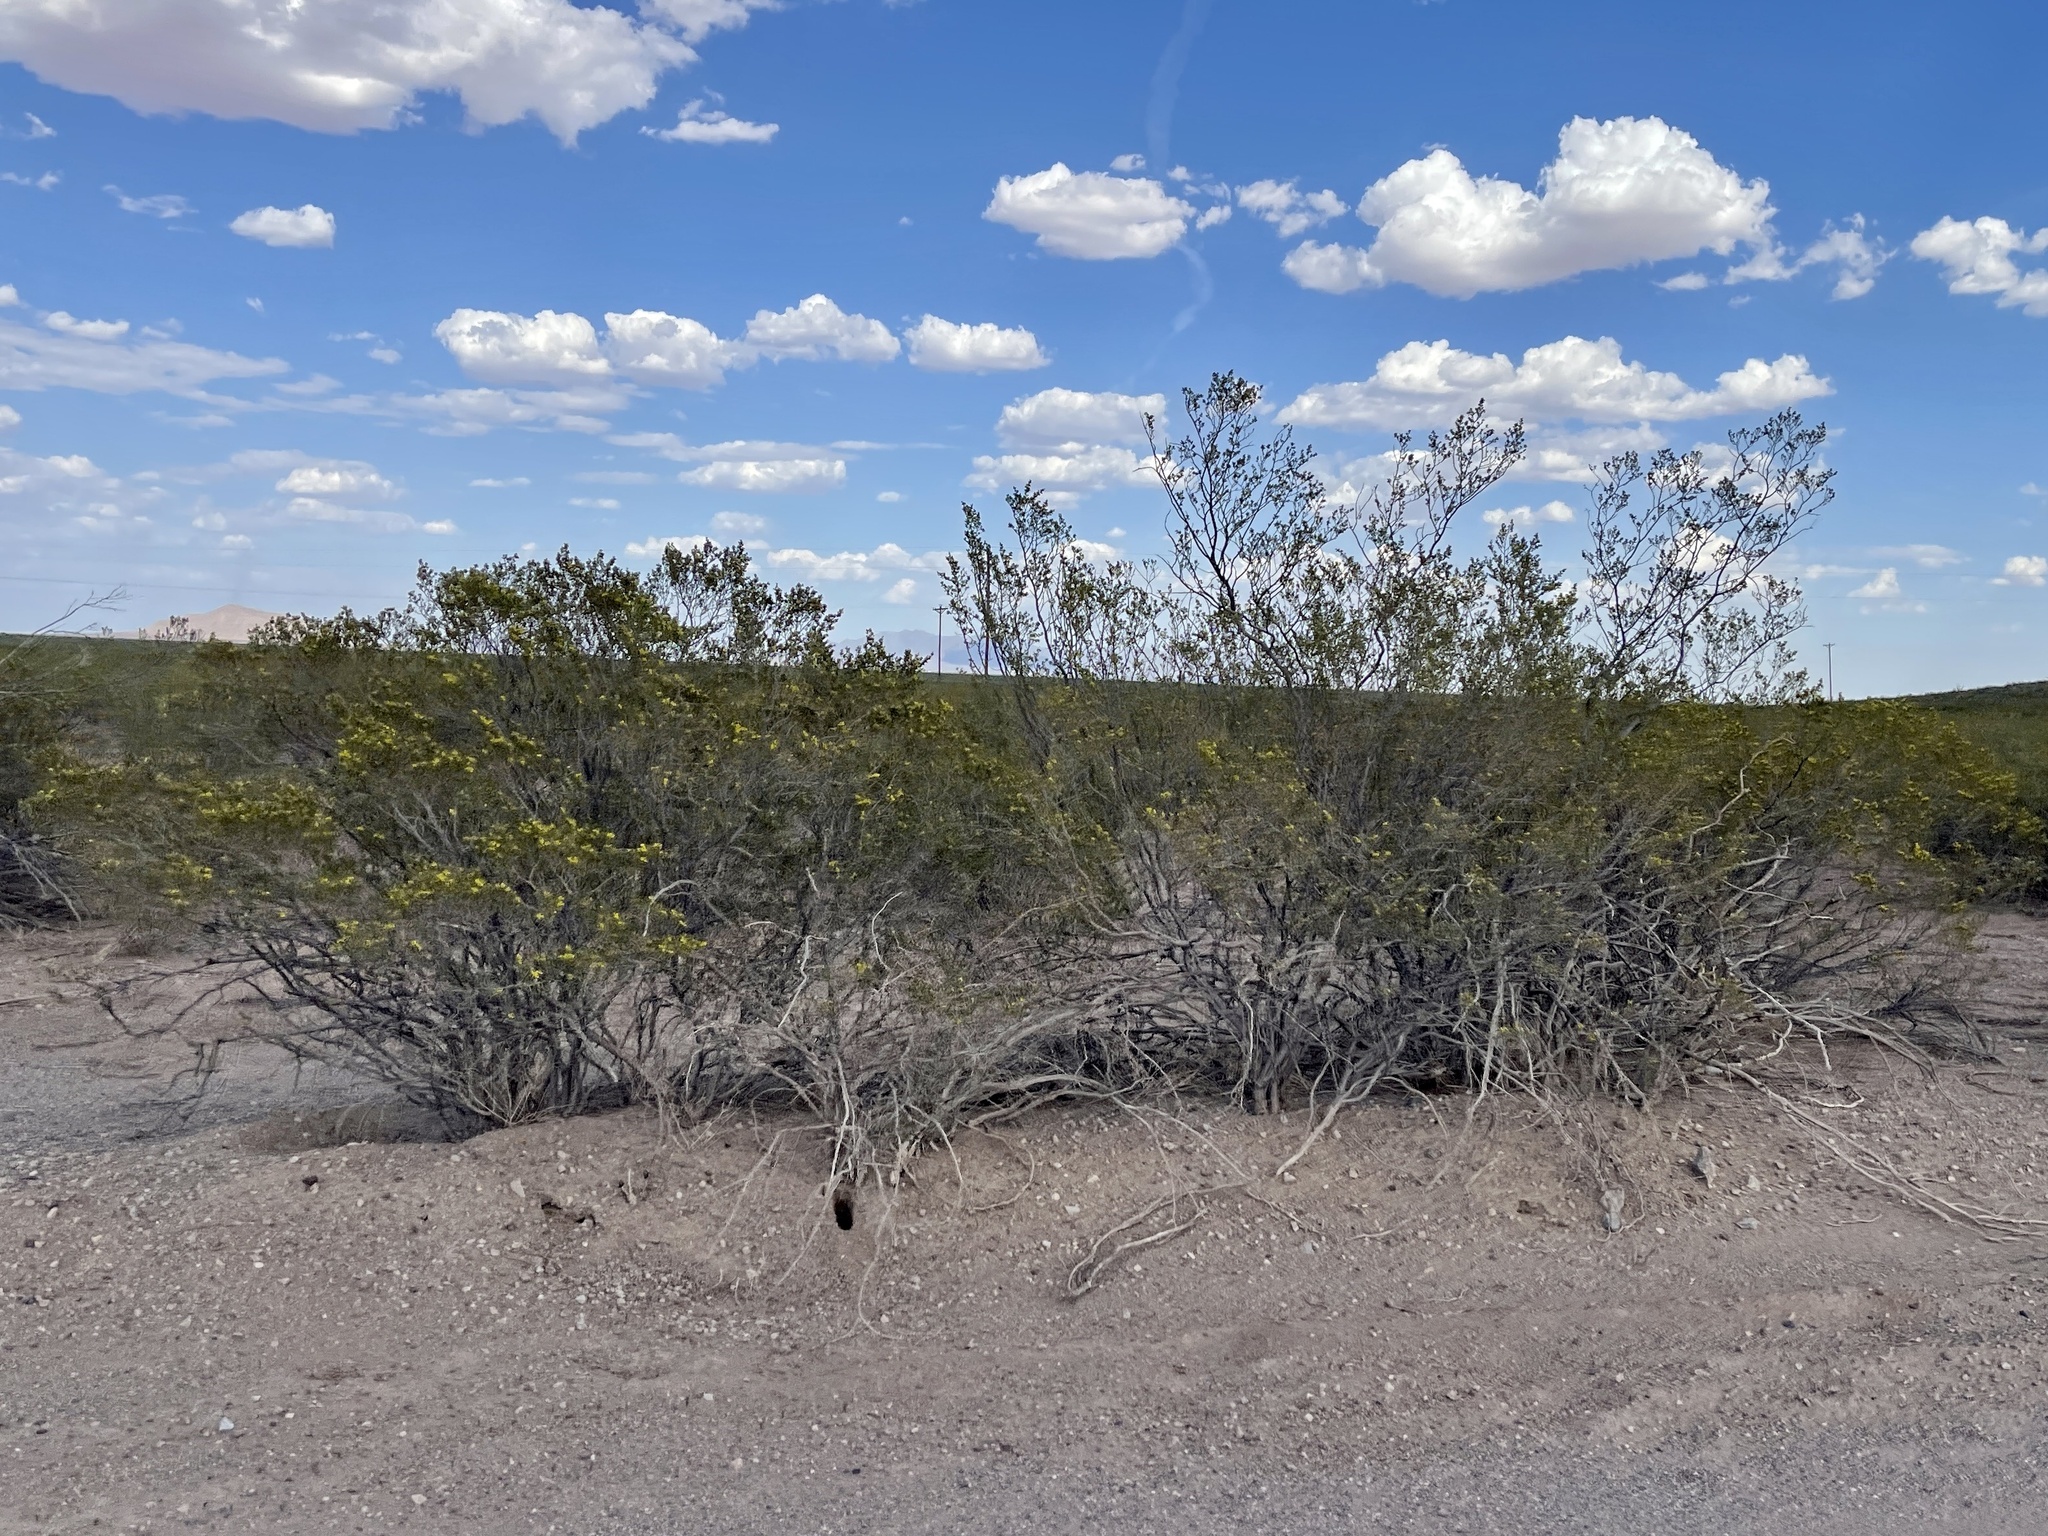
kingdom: Plantae
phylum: Tracheophyta
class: Magnoliopsida
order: Zygophyllales
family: Zygophyllaceae
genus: Larrea
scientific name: Larrea tridentata
